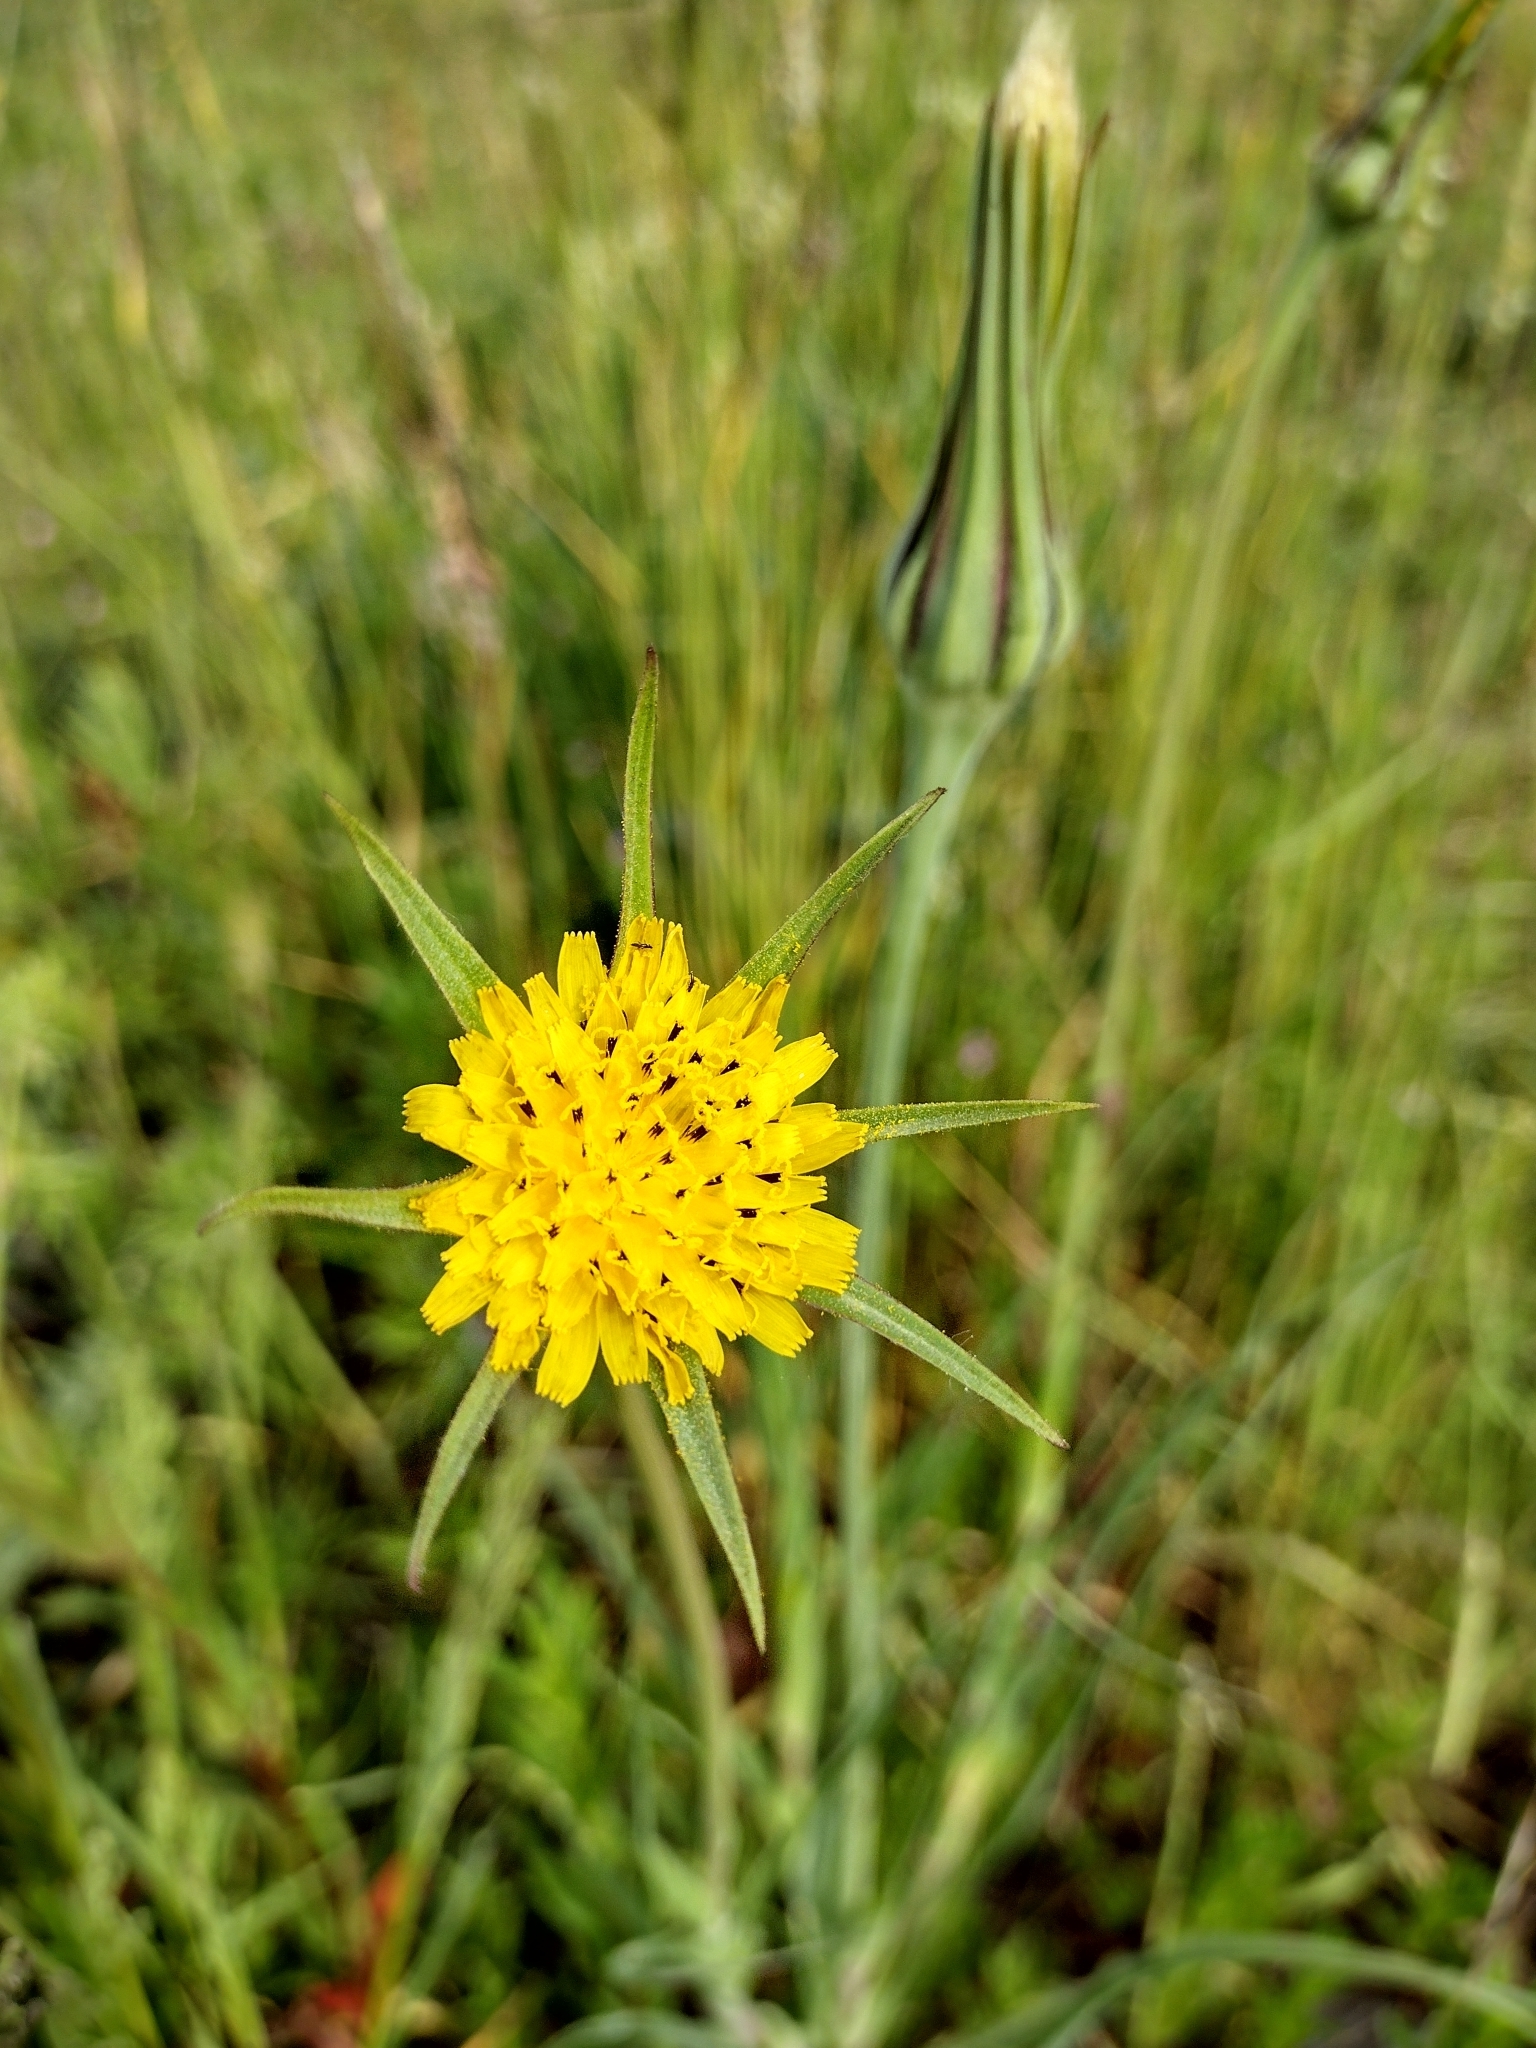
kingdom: Plantae
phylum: Tracheophyta
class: Magnoliopsida
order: Asterales
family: Asteraceae
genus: Tragopogon
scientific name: Tragopogon pratensis
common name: Goat's-beard
